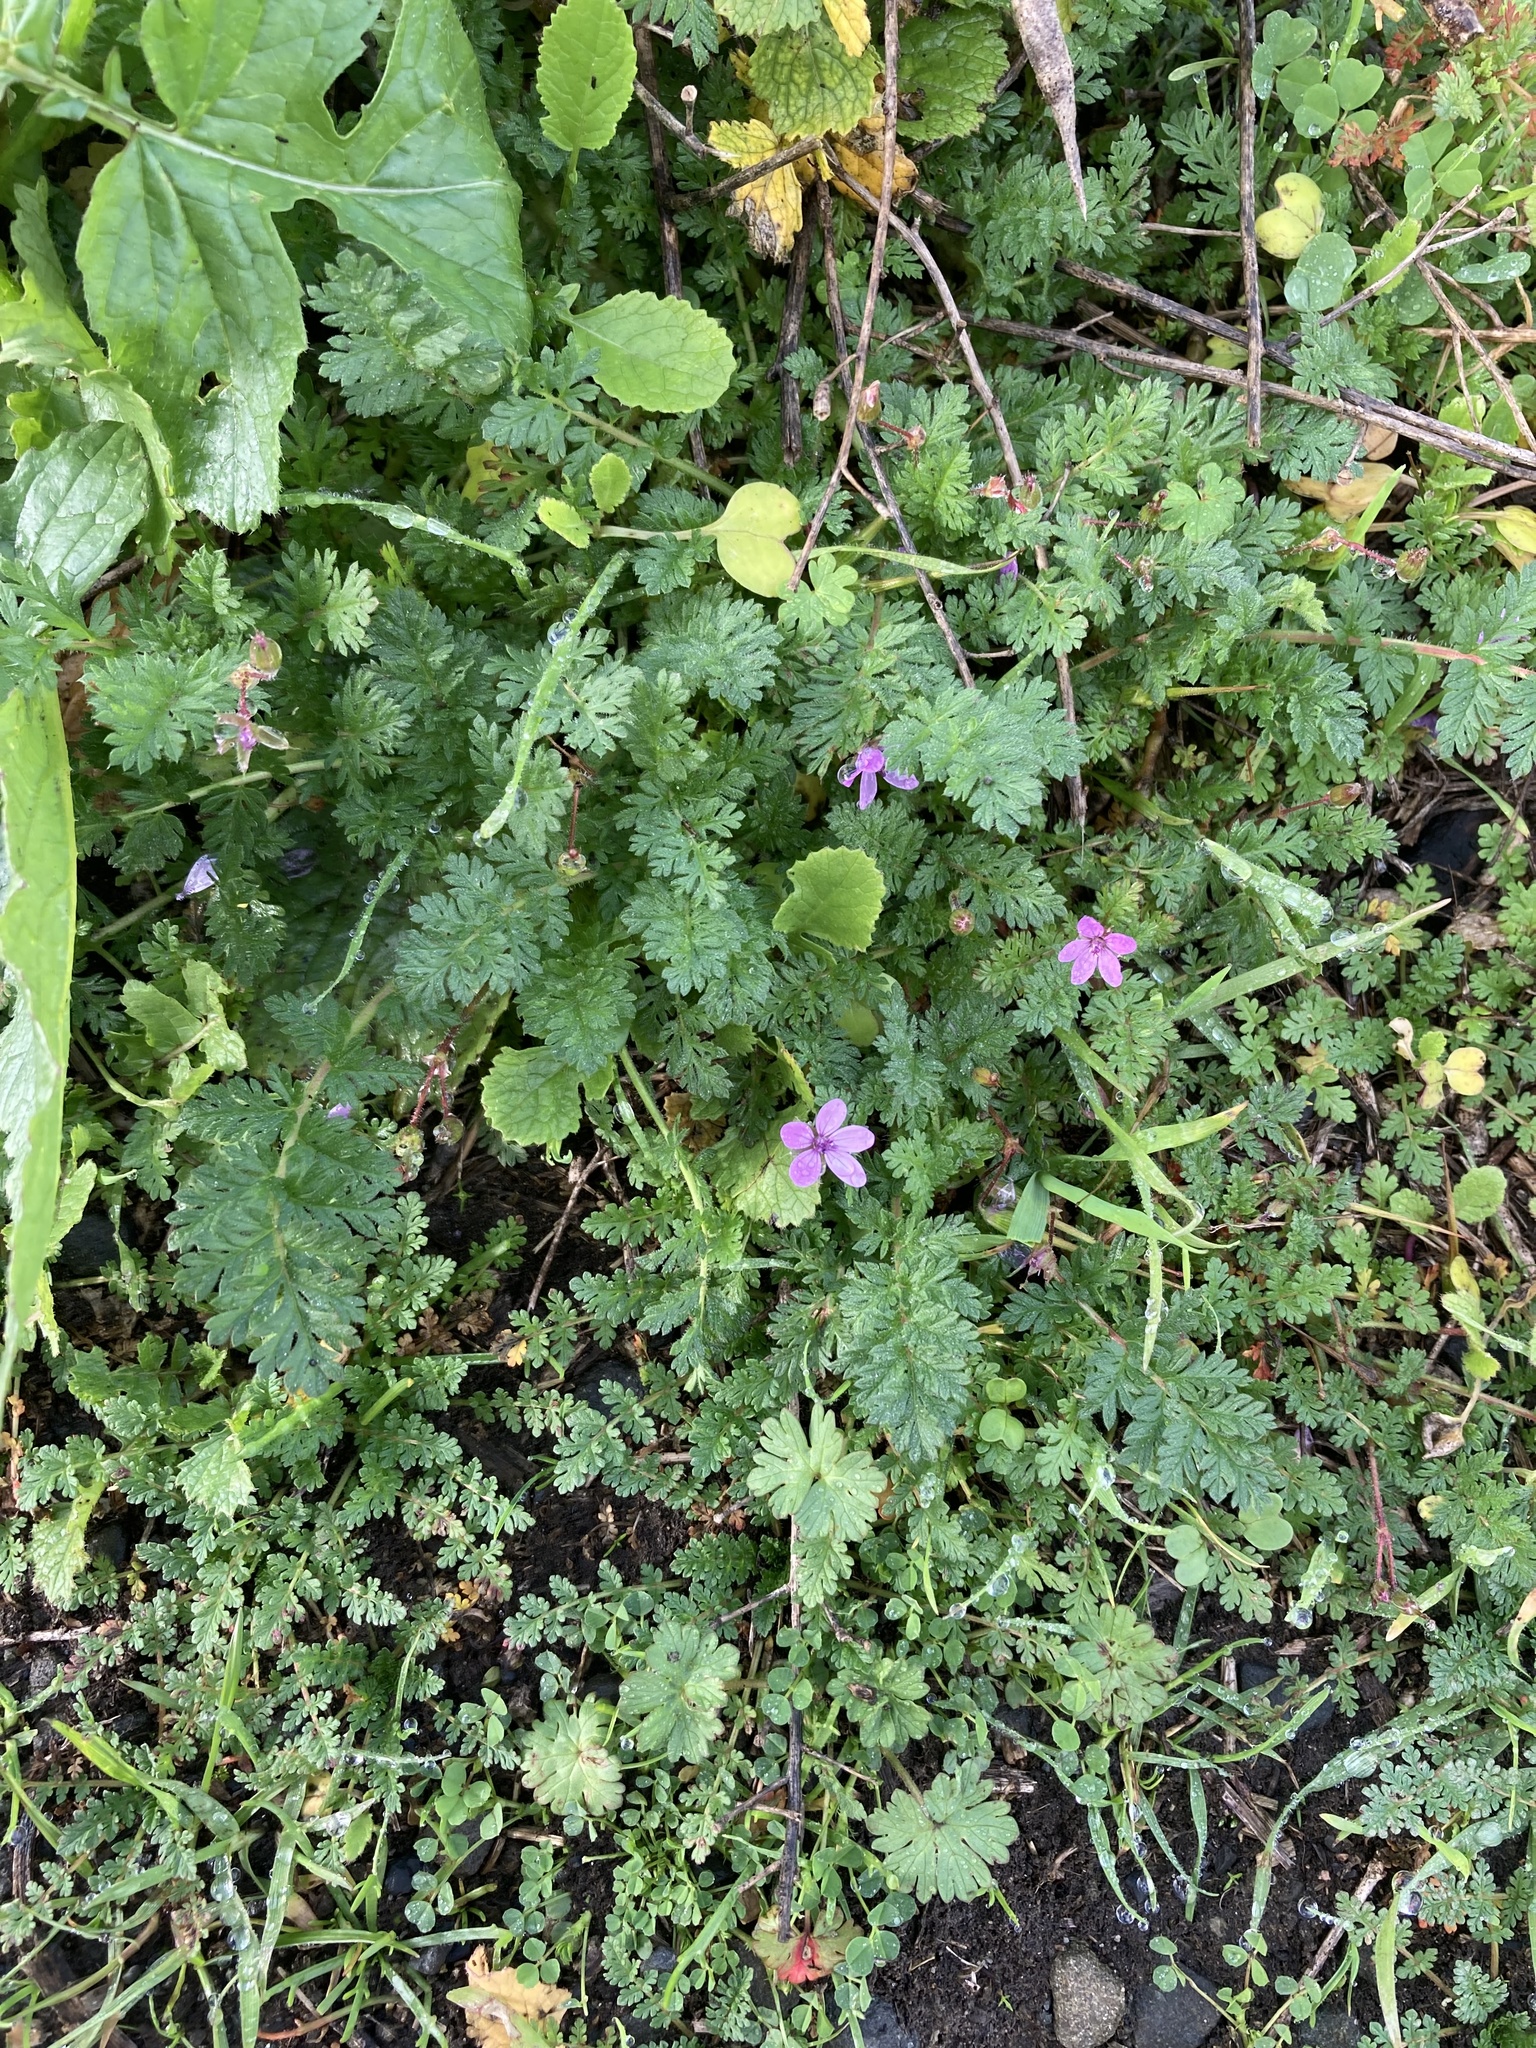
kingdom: Plantae
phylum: Tracheophyta
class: Magnoliopsida
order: Geraniales
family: Geraniaceae
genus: Erodium
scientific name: Erodium cicutarium
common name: Common stork's-bill
